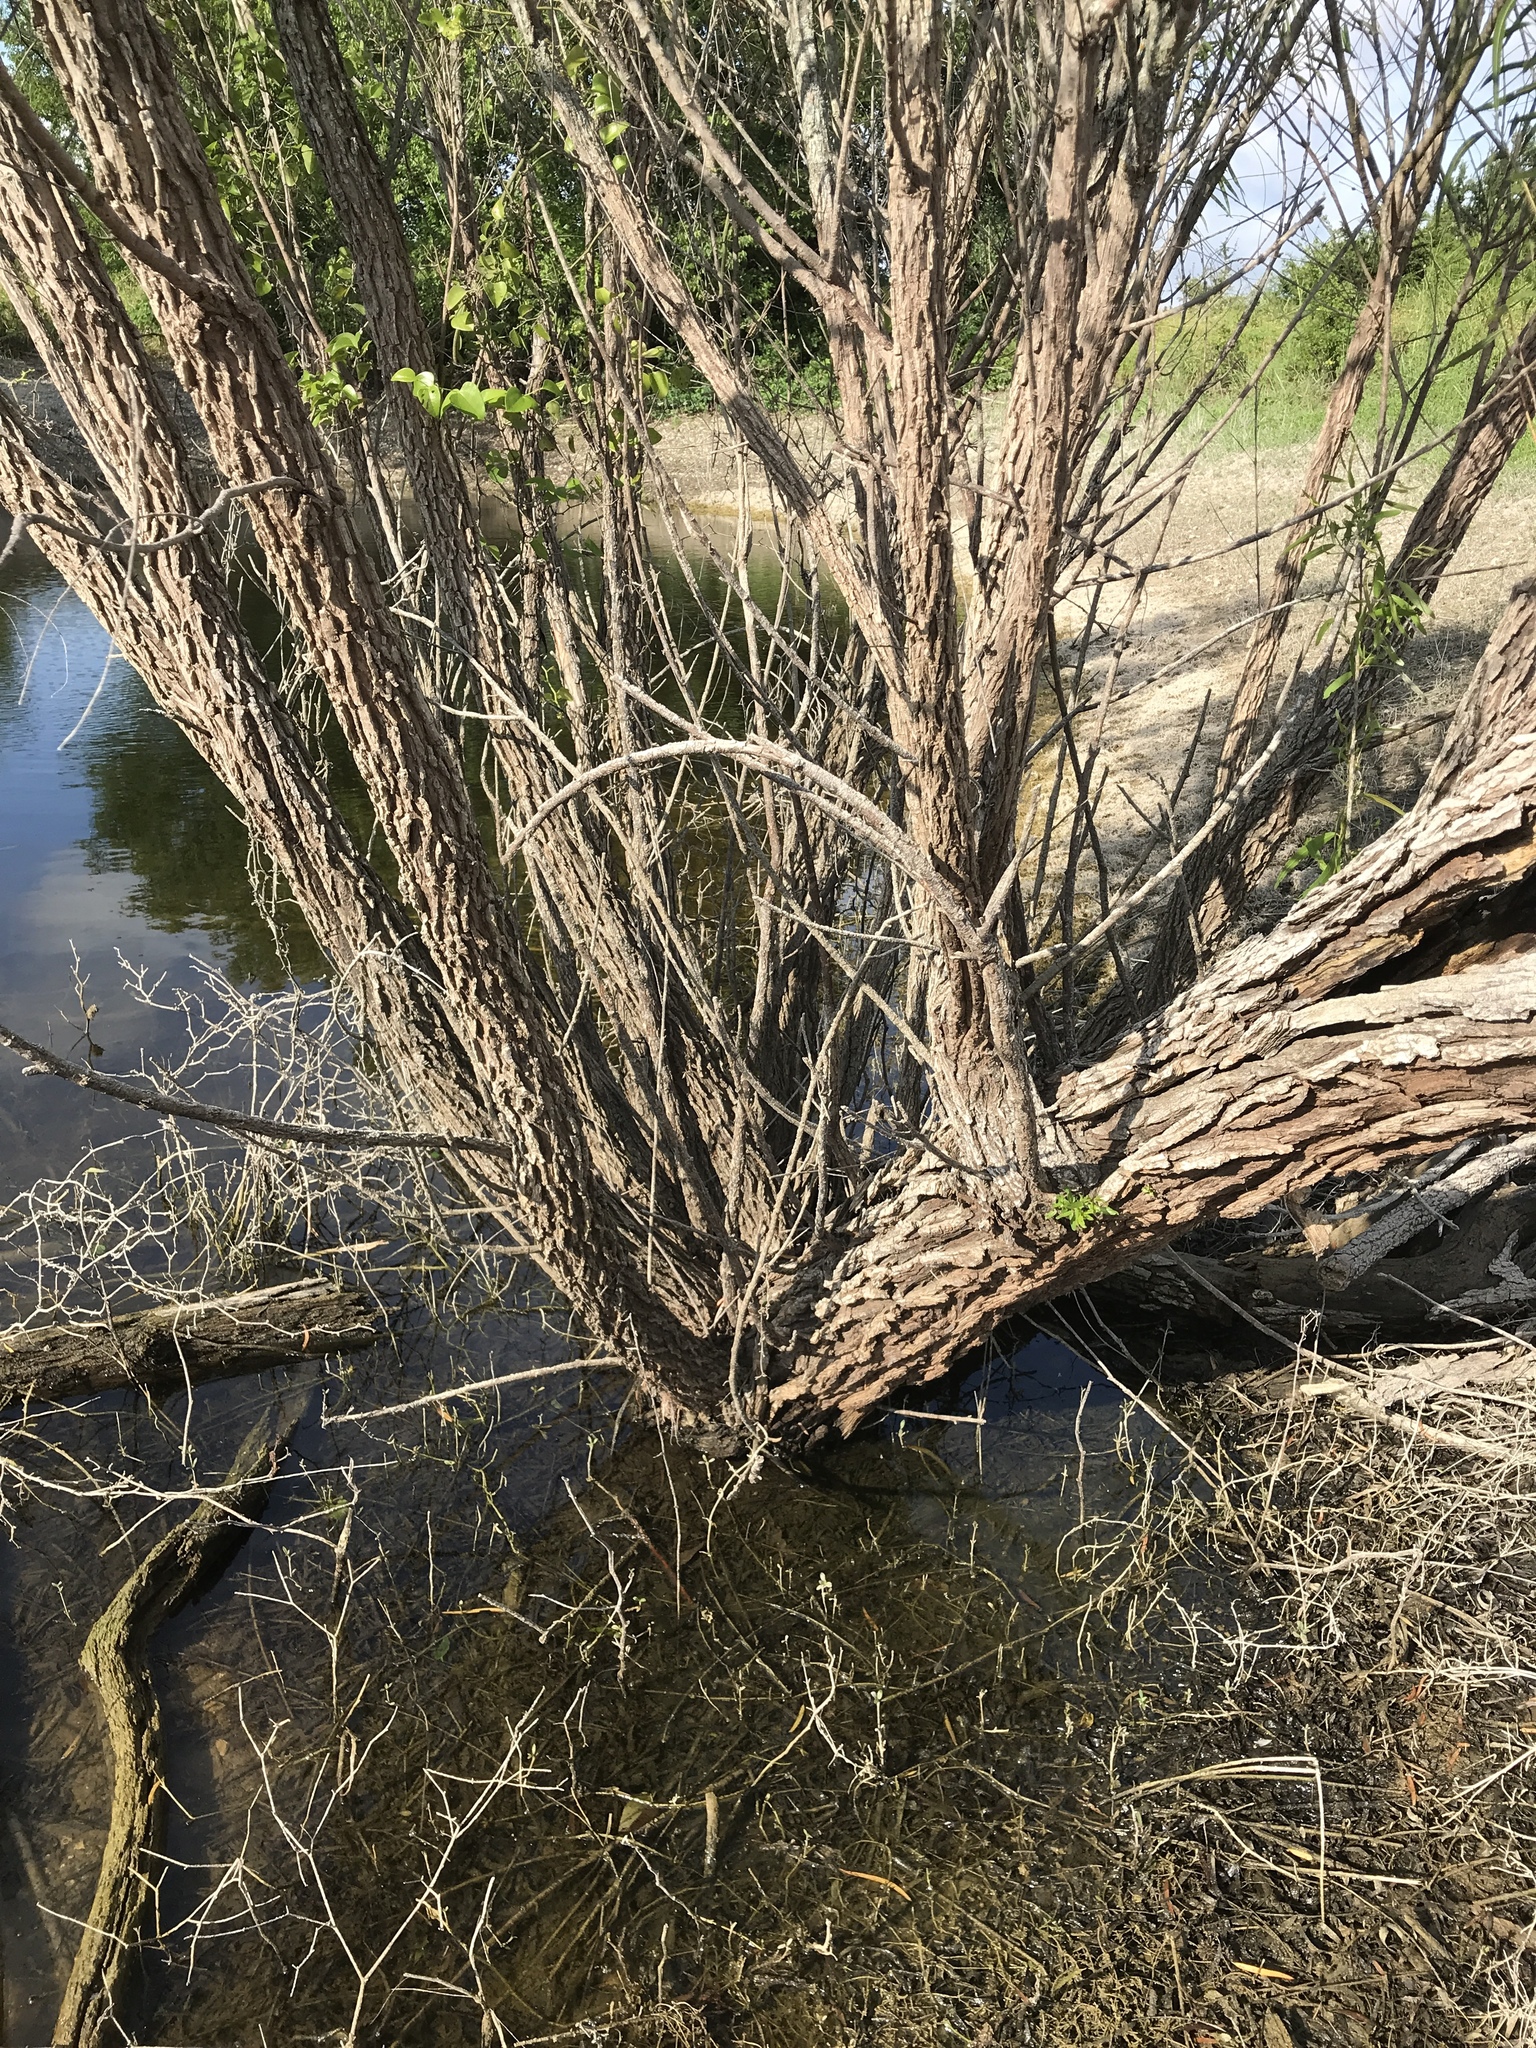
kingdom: Plantae
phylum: Tracheophyta
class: Magnoliopsida
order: Malpighiales
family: Salicaceae
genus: Salix
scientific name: Salix nigra
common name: Black willow
